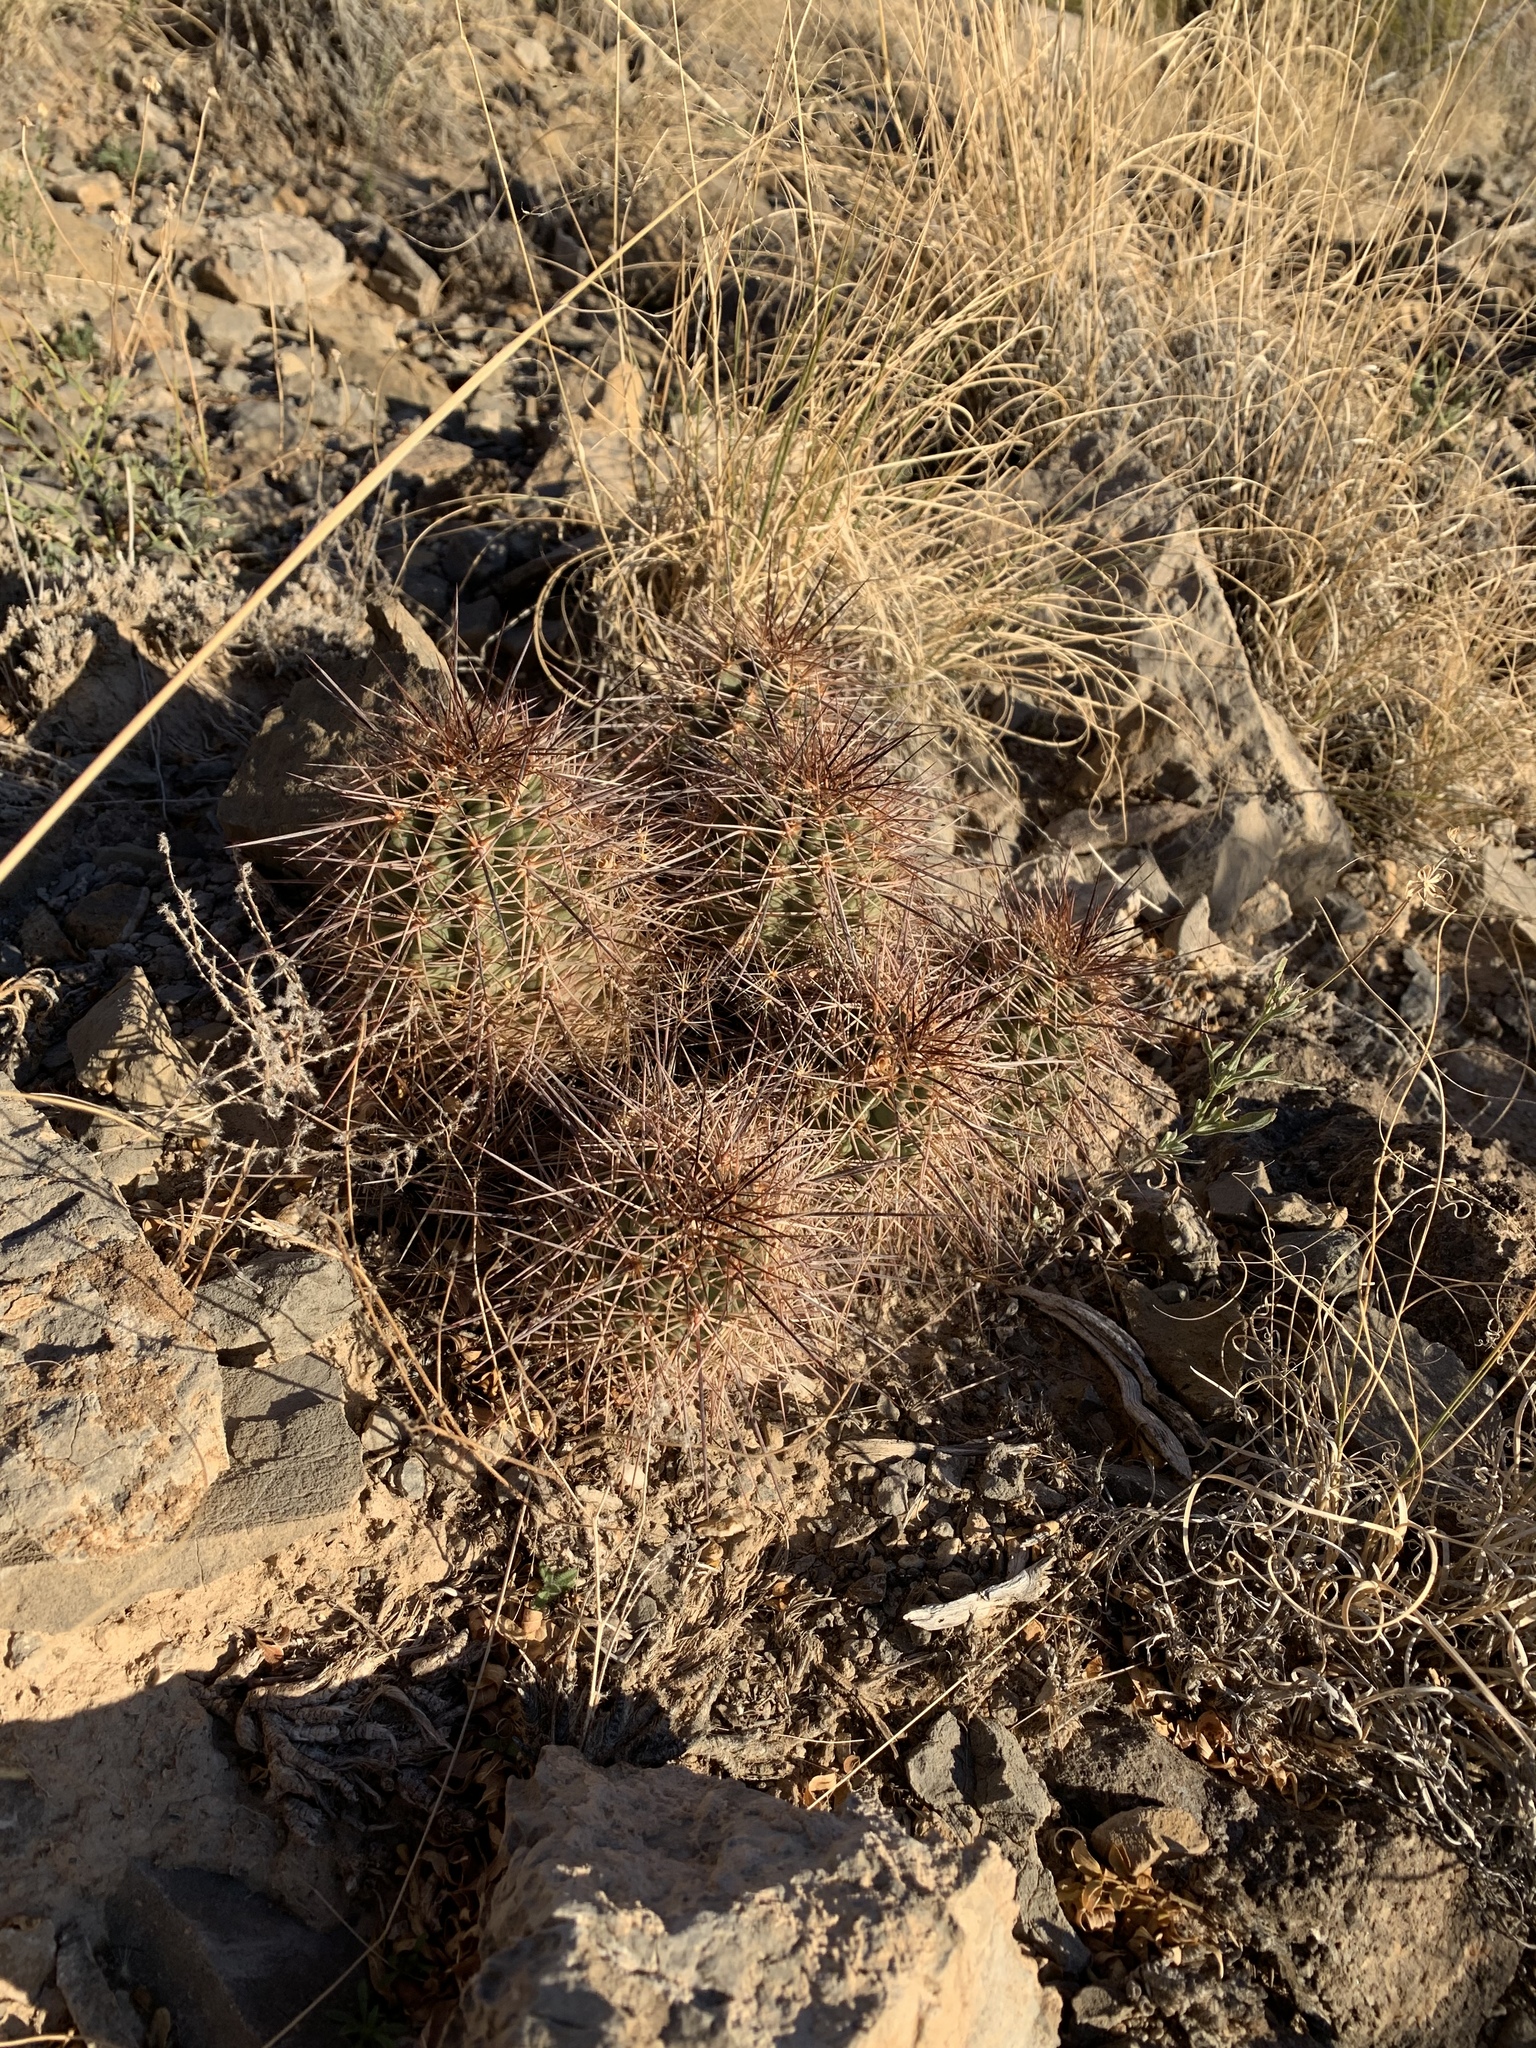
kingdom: Plantae
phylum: Tracheophyta
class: Magnoliopsida
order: Caryophyllales
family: Cactaceae
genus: Echinocereus
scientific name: Echinocereus coccineus
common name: Scarlet hedgehog cactus
